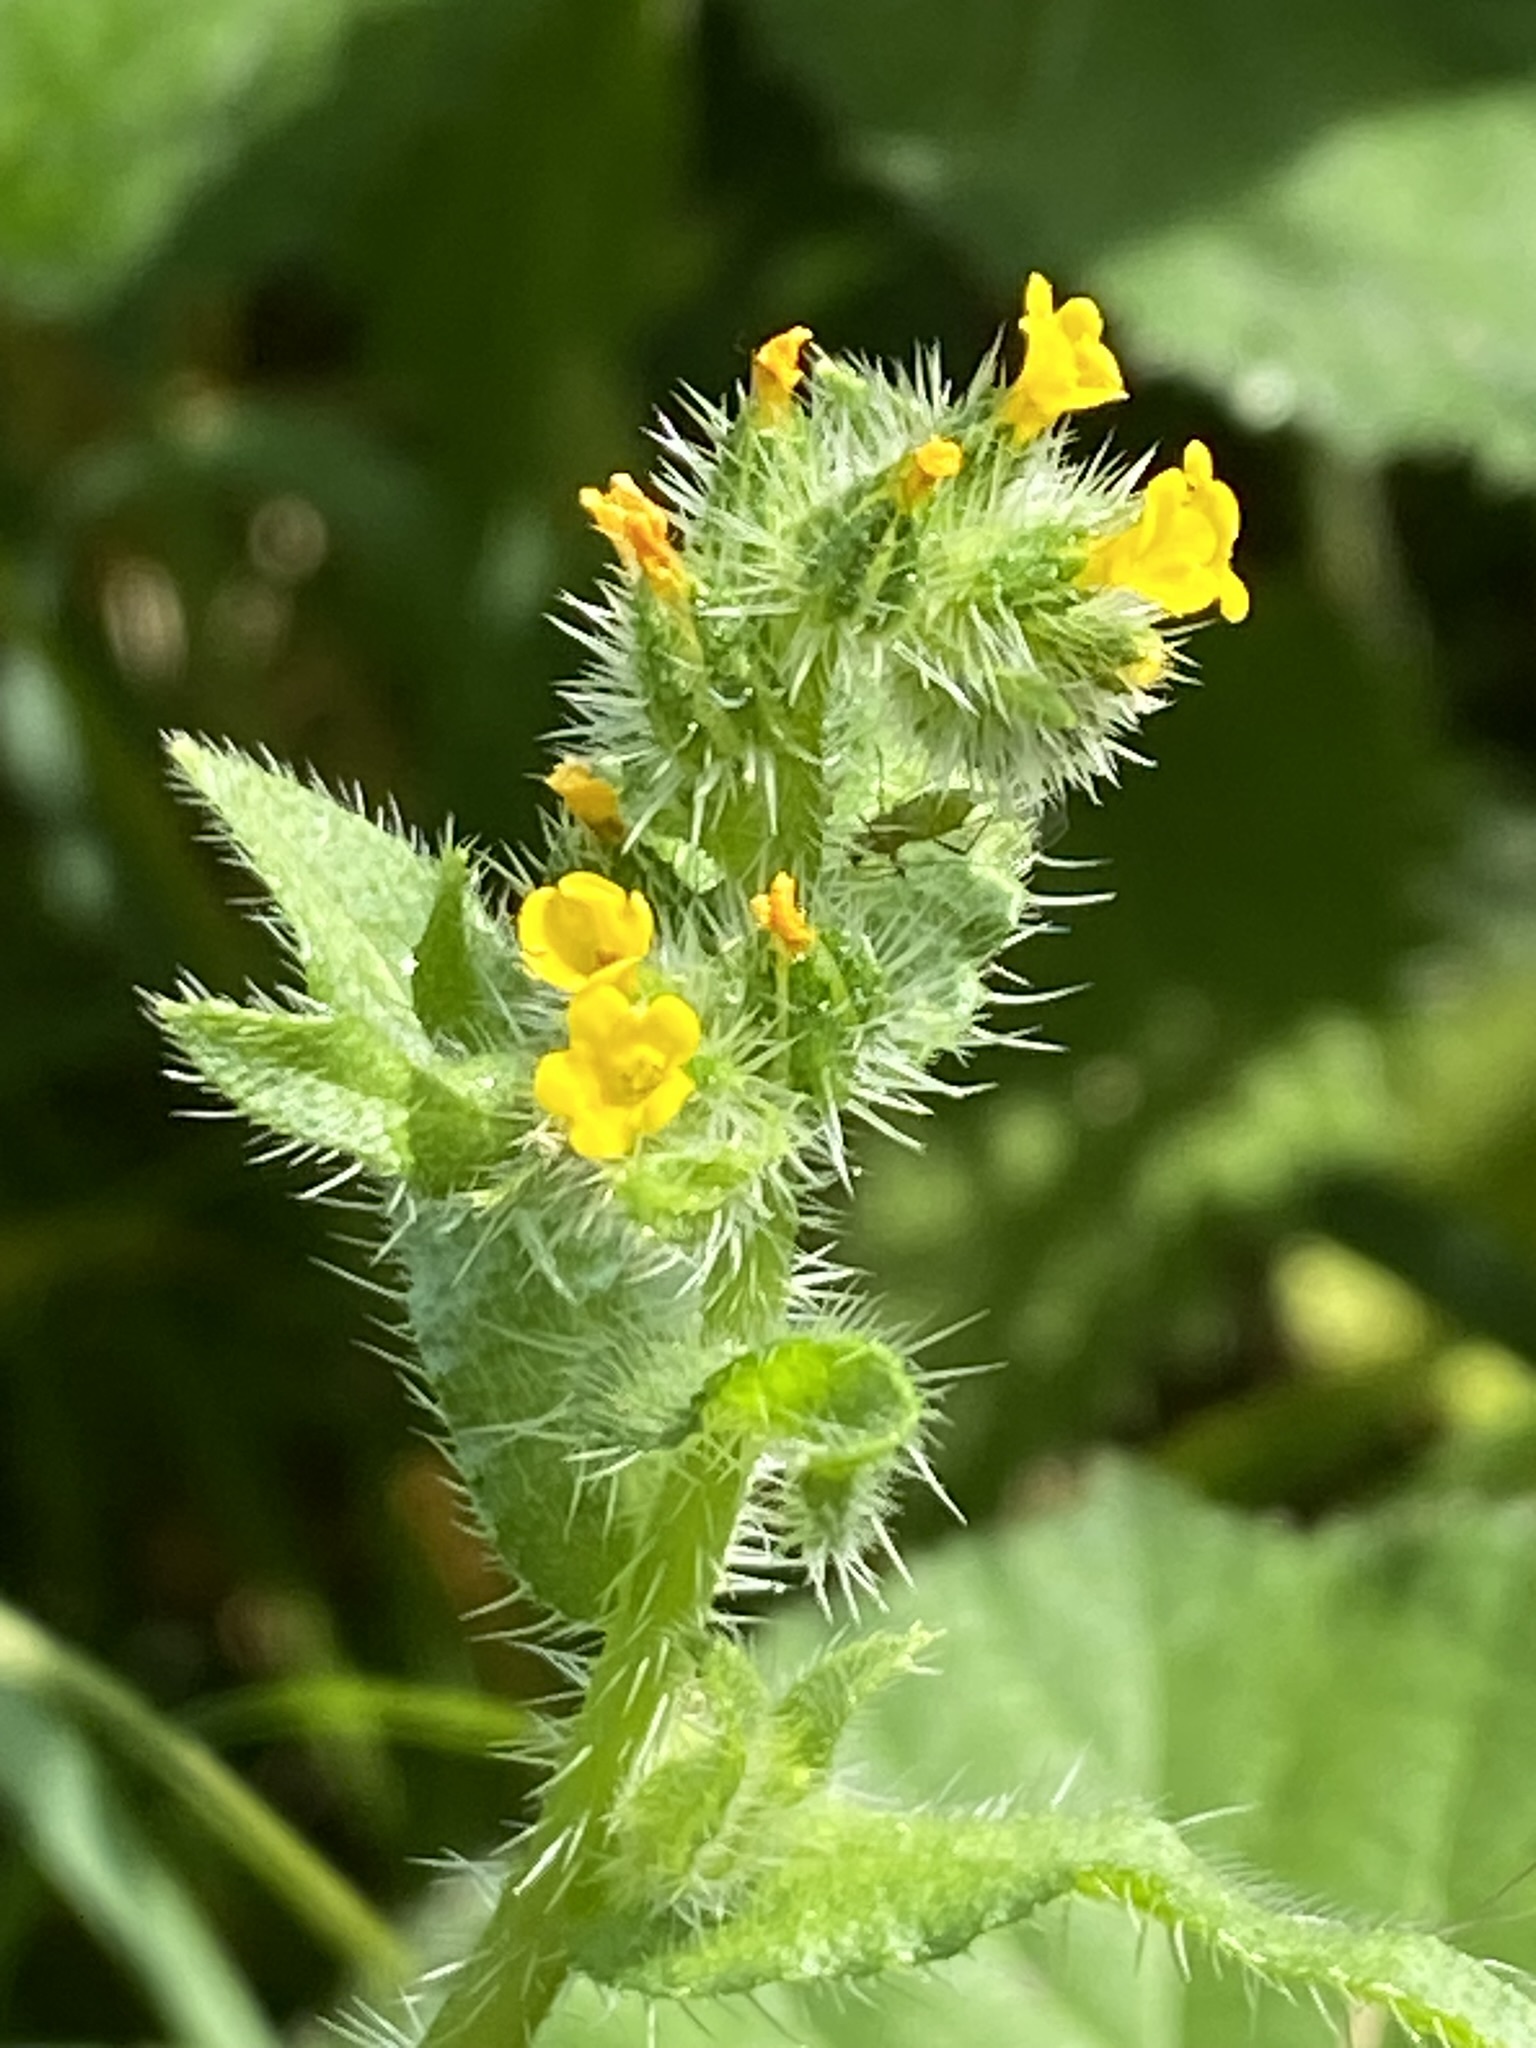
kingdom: Plantae
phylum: Tracheophyta
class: Magnoliopsida
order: Boraginales
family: Boraginaceae
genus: Amsinckia
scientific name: Amsinckia menziesii
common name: Menzies' fiddleneck
